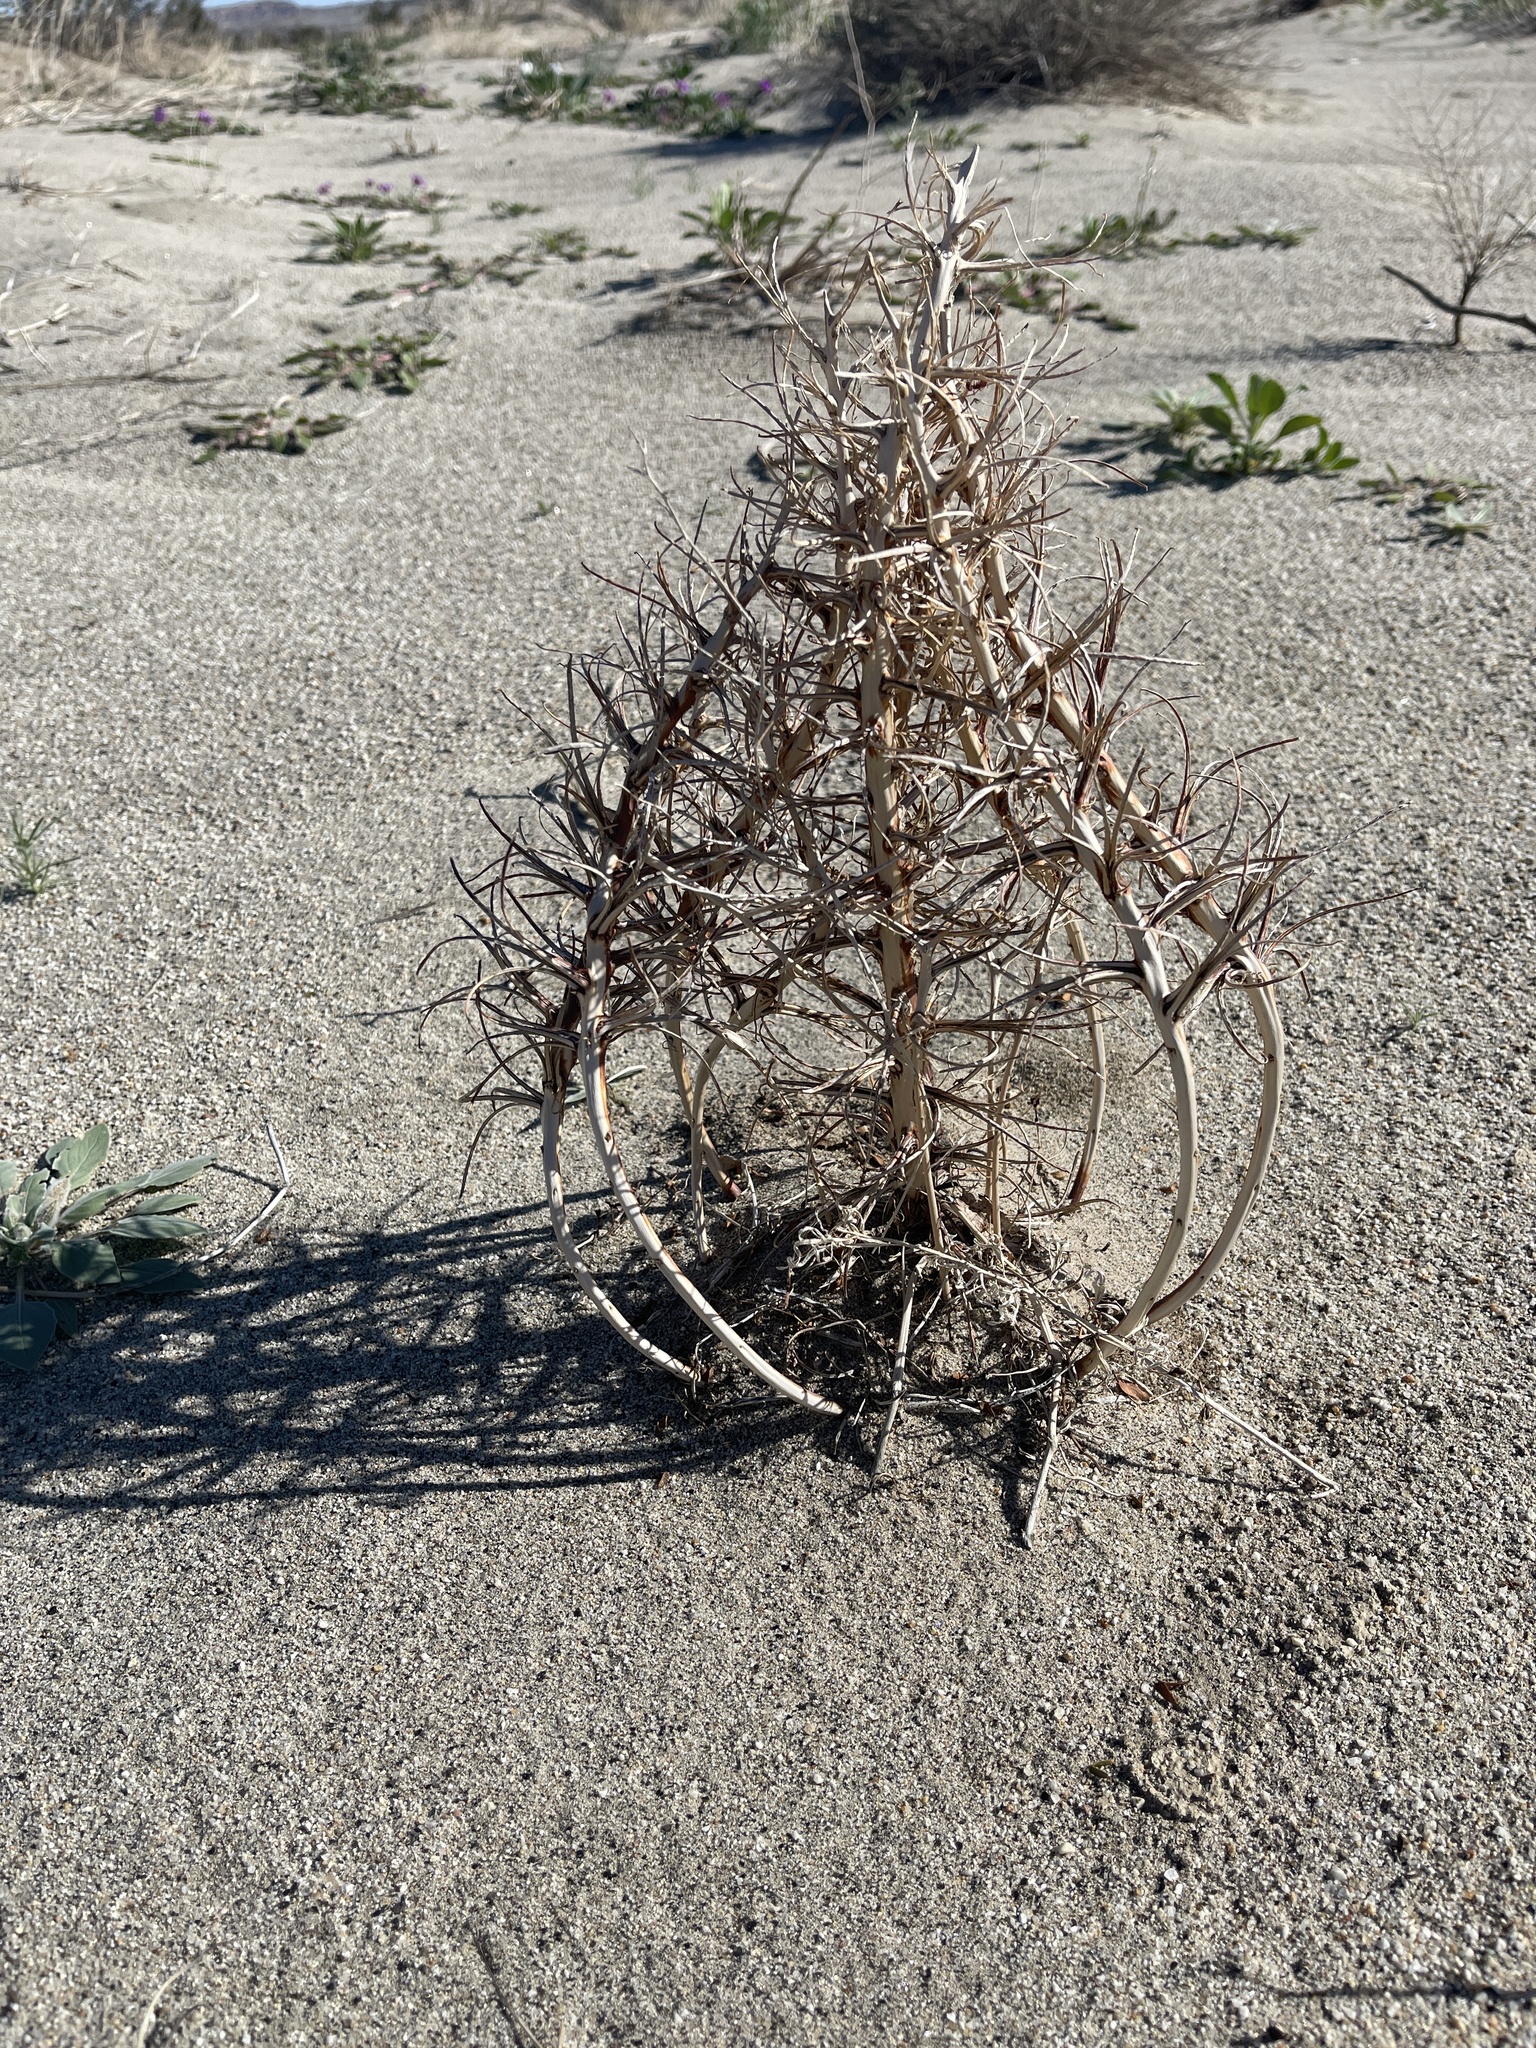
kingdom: Plantae
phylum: Tracheophyta
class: Magnoliopsida
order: Myrtales
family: Onagraceae
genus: Oenothera
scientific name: Oenothera deltoides
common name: Basket evening-primrose
